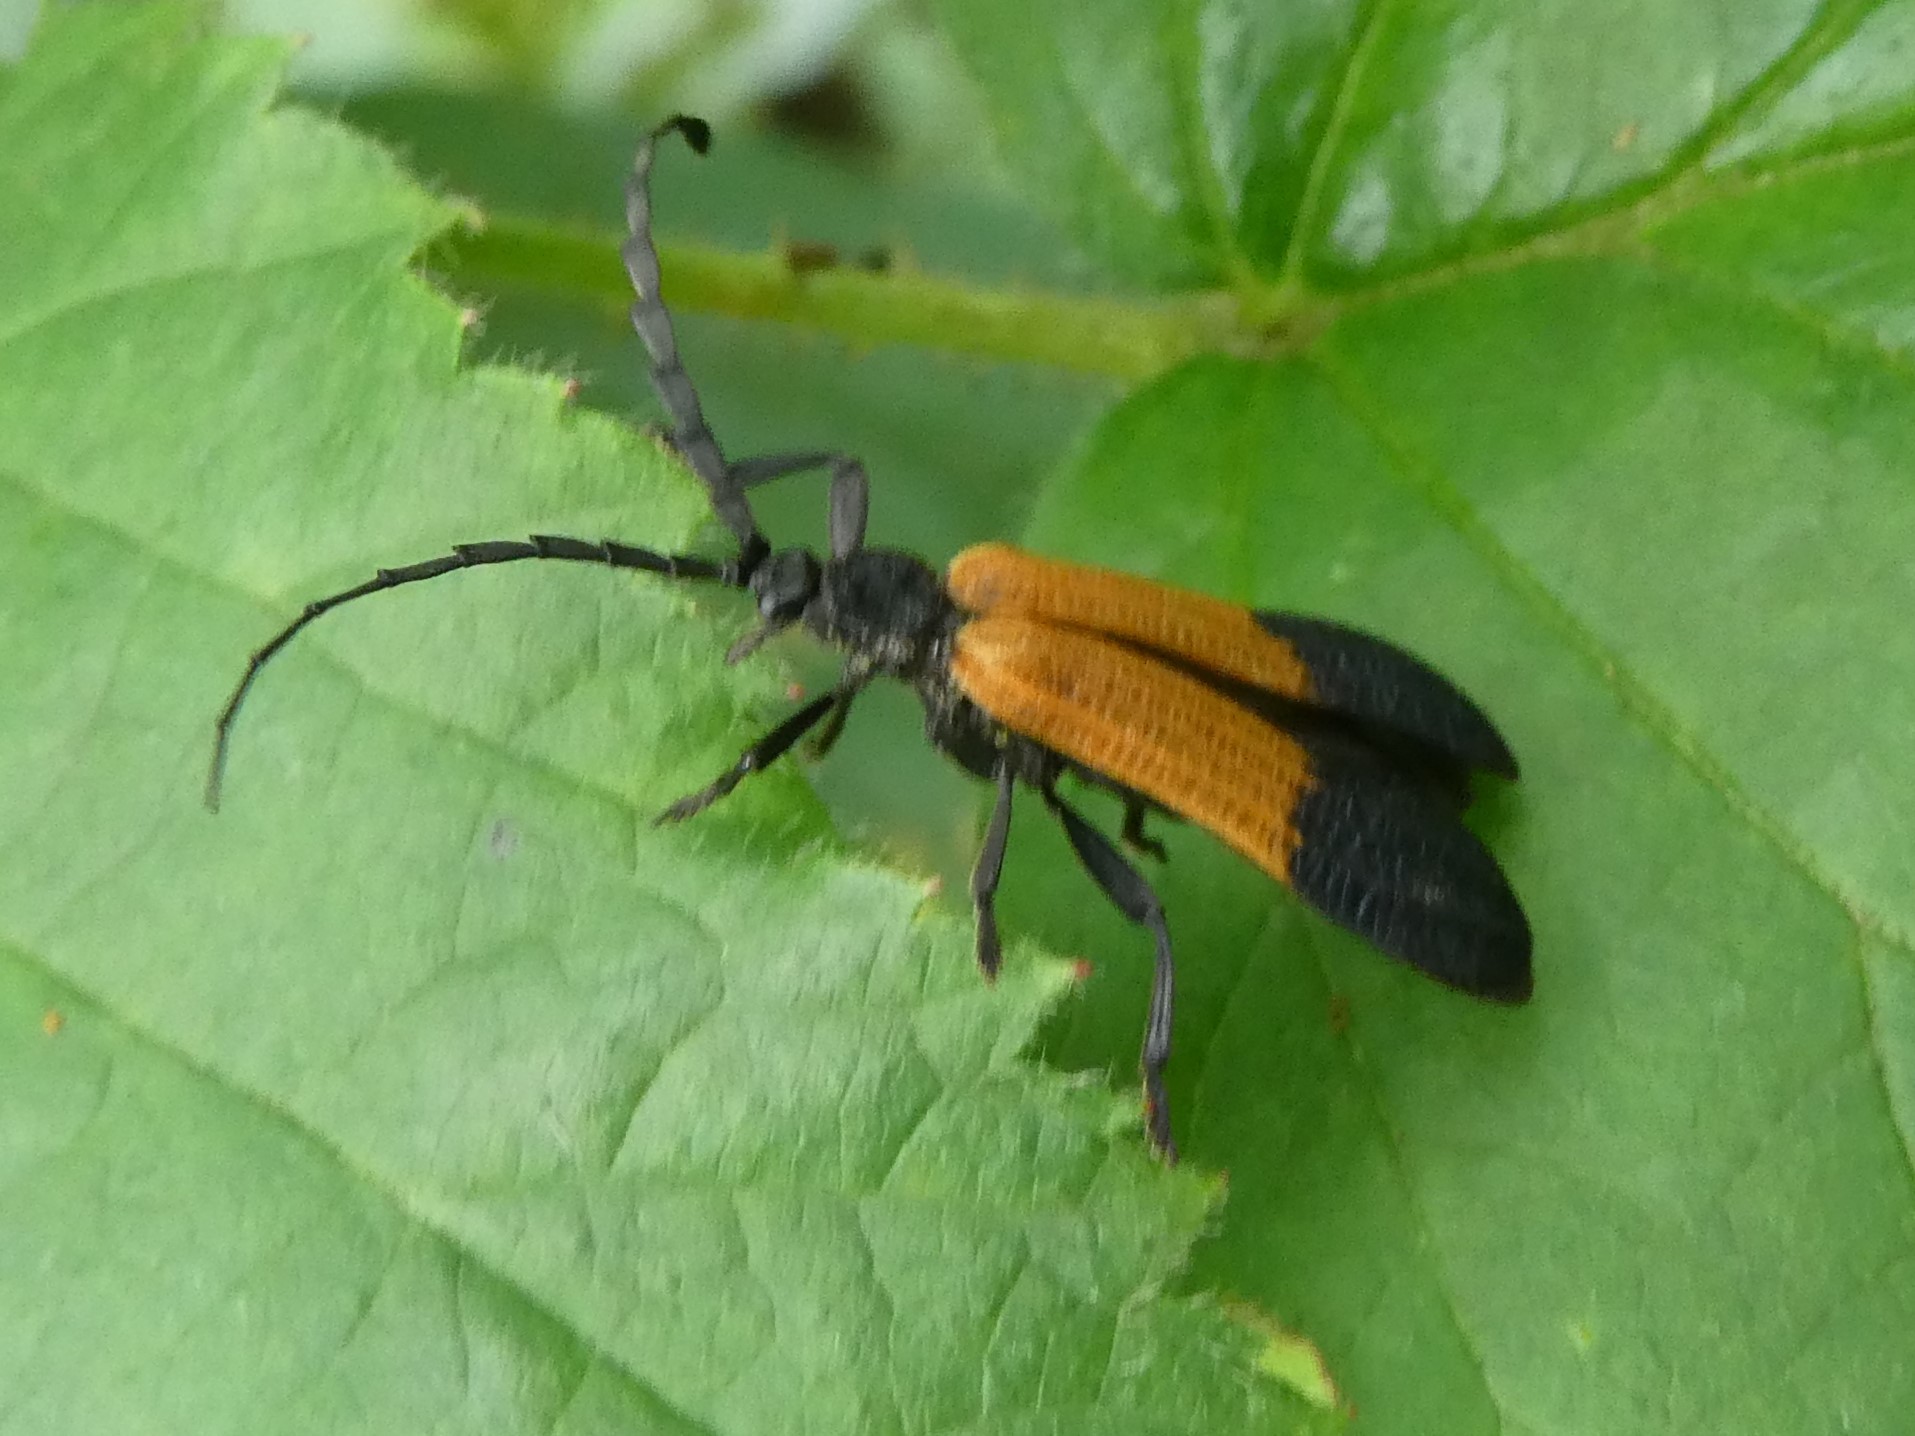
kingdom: Animalia
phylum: Arthropoda
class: Insecta
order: Coleoptera
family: Lycidae
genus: Calopteron
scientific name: Calopteron terminale
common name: End band net-winged beetle
